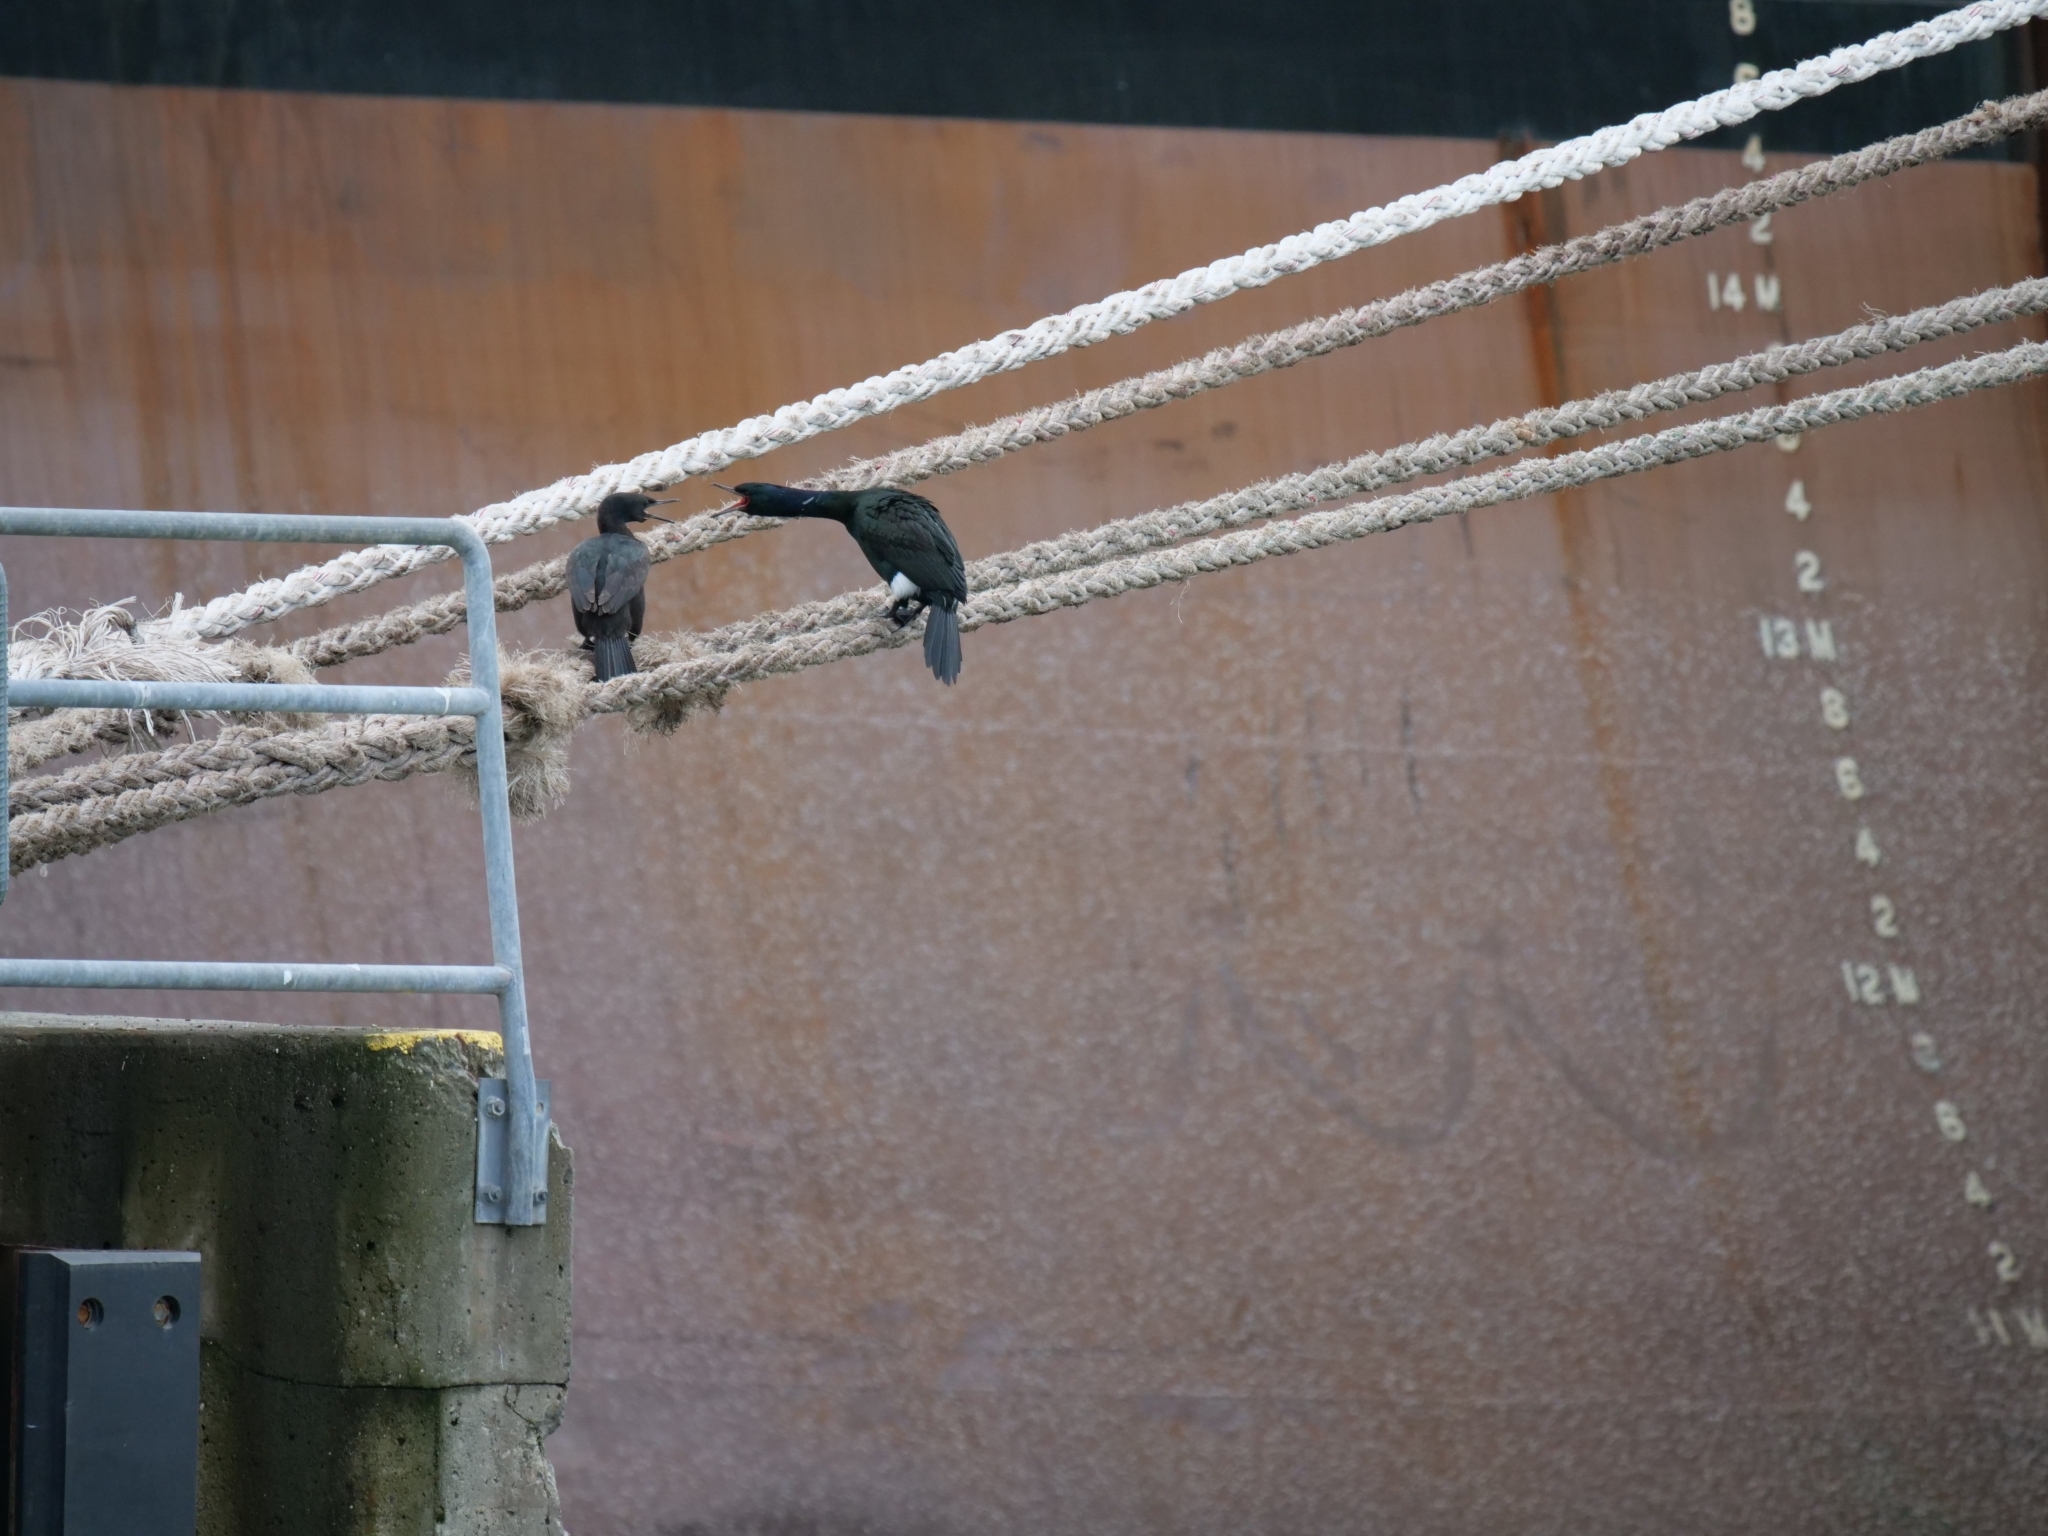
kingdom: Animalia
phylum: Chordata
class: Aves
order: Suliformes
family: Phalacrocoracidae
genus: Phalacrocorax
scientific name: Phalacrocorax pelagicus
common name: Pelagic cormorant
